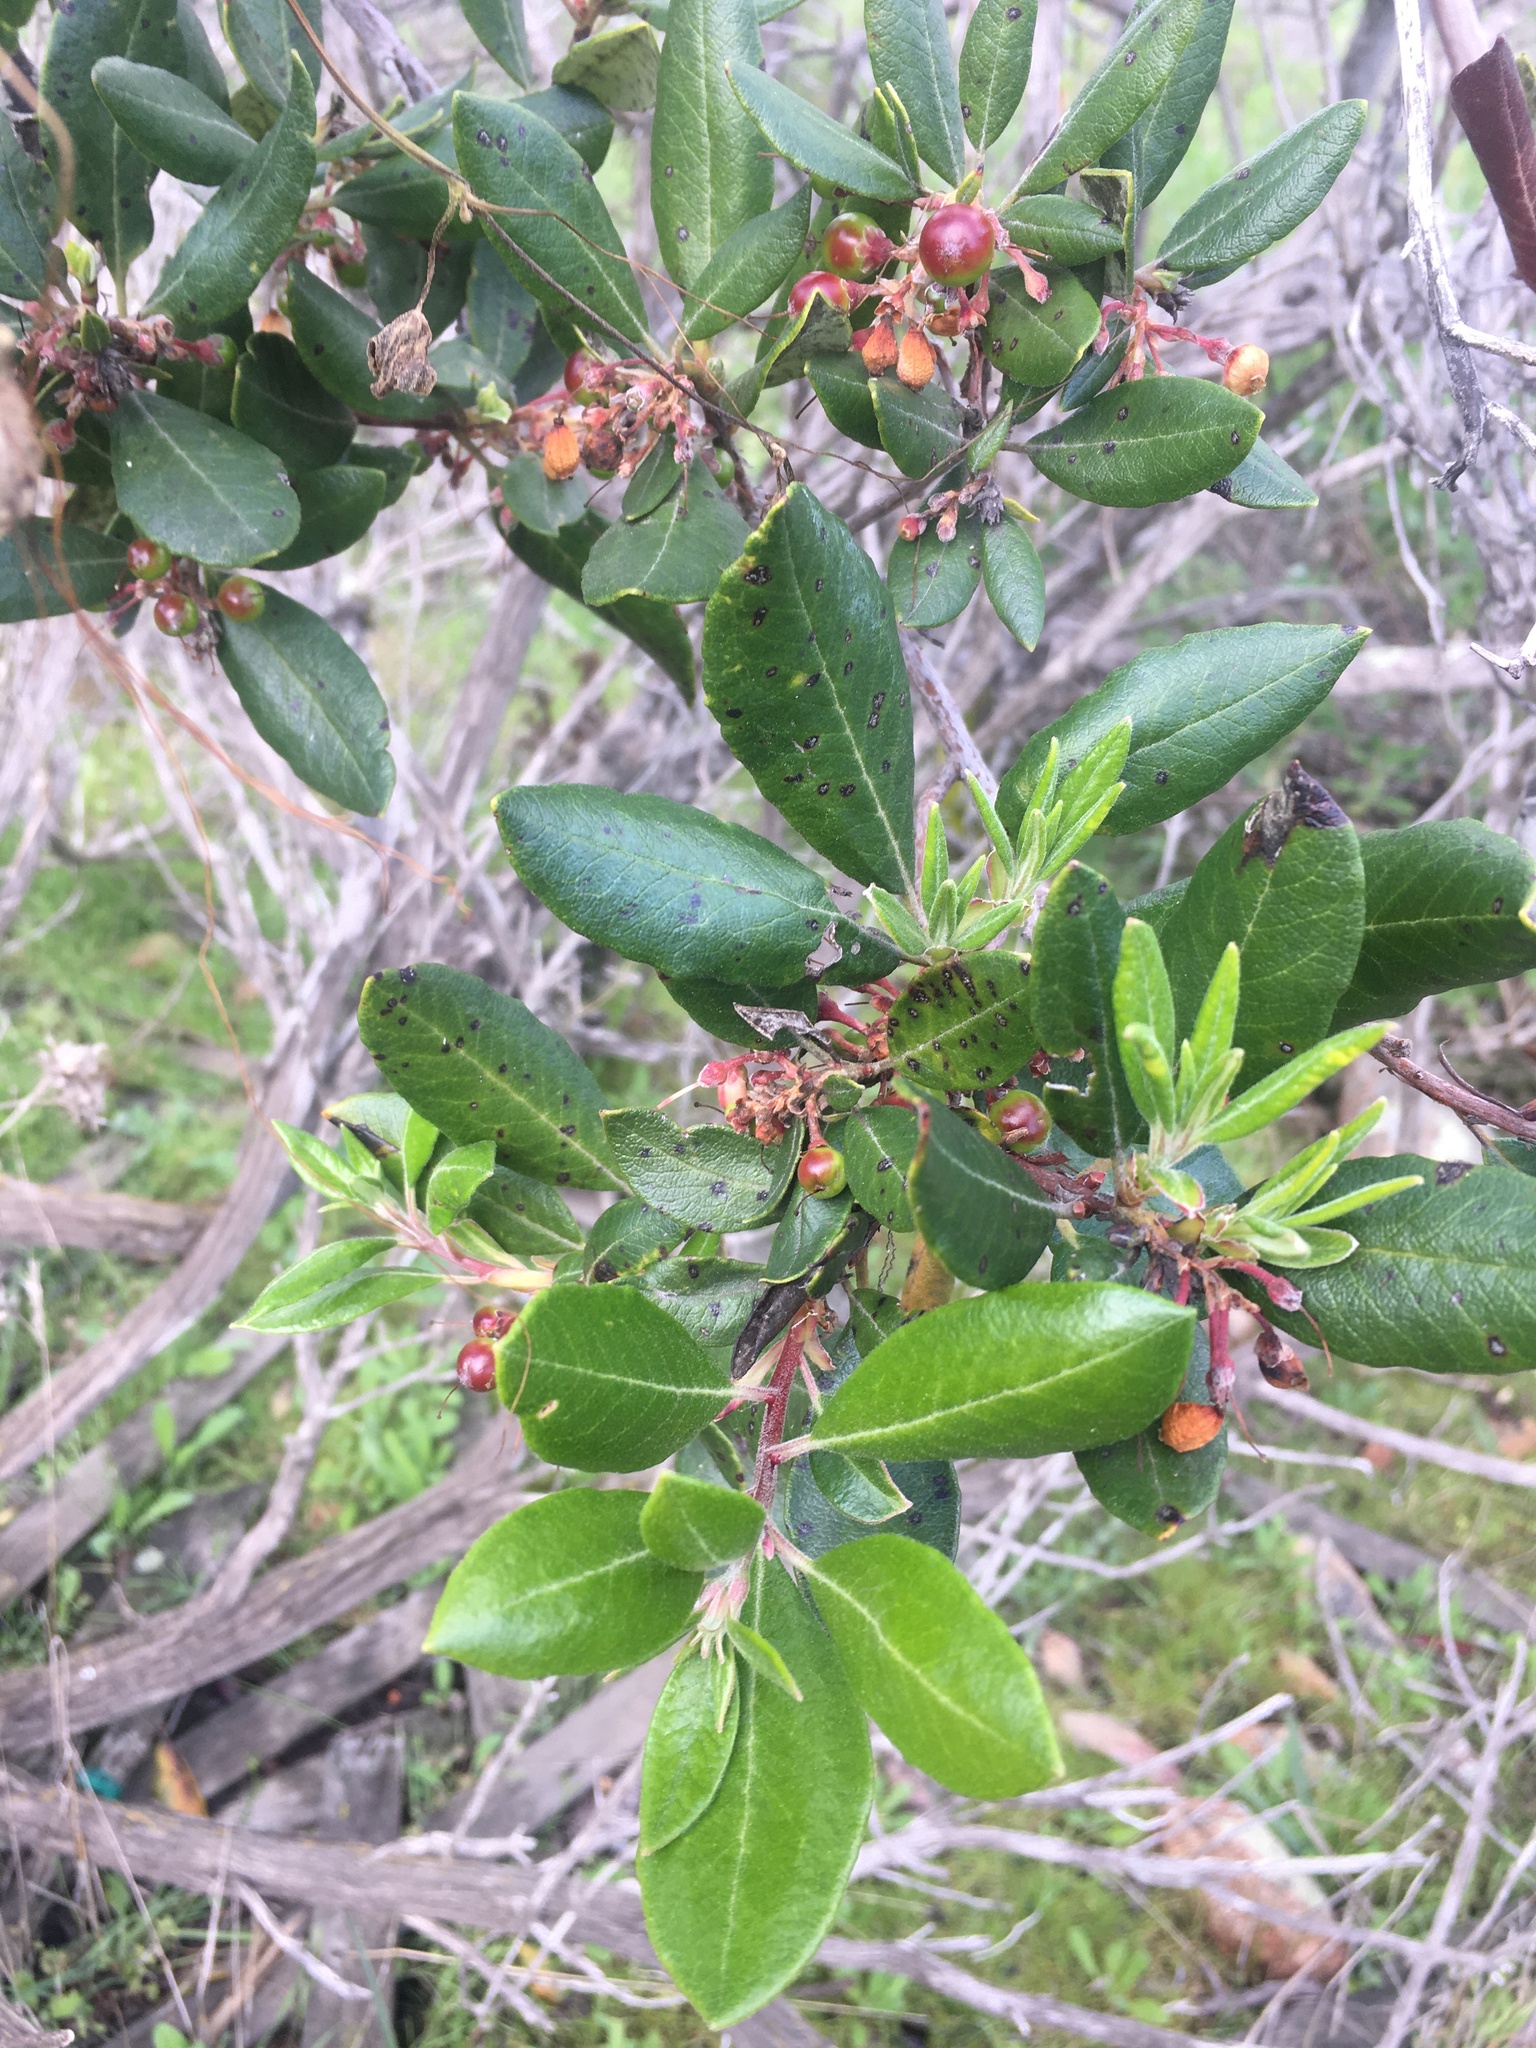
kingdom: Plantae
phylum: Tracheophyta
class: Magnoliopsida
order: Ericales
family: Ericaceae
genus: Arctostaphylos
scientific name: Arctostaphylos bicolor
